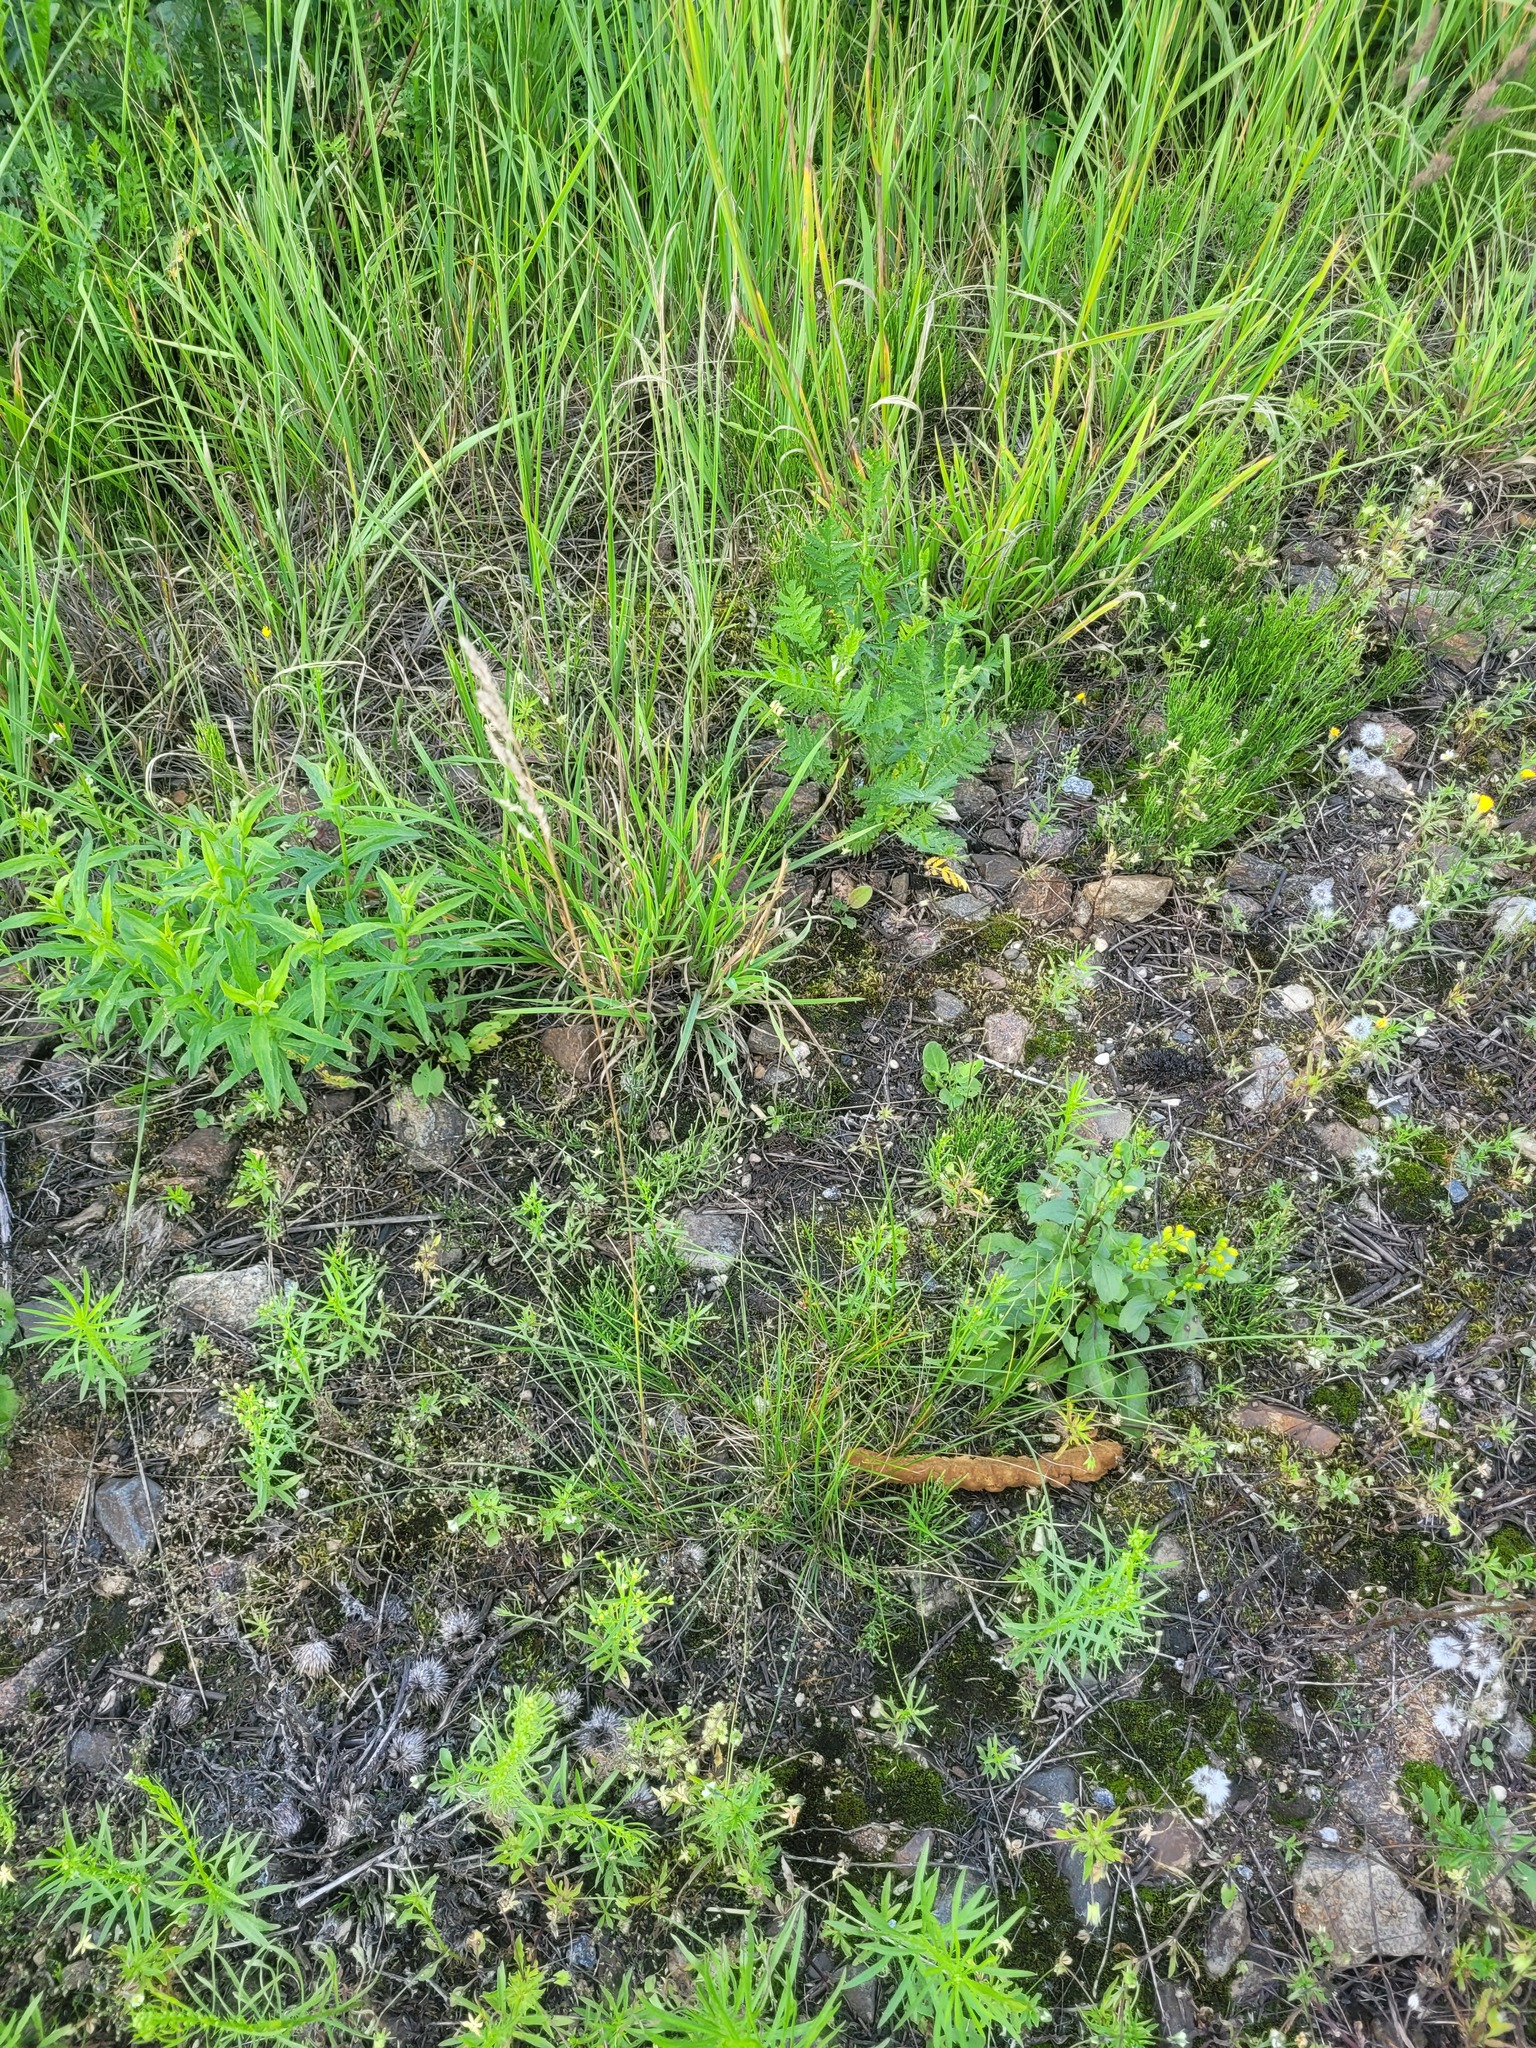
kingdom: Plantae
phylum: Tracheophyta
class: Liliopsida
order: Poales
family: Poaceae
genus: Poa
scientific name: Poa angustifolia
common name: Narrow-leaved meadow-grass
